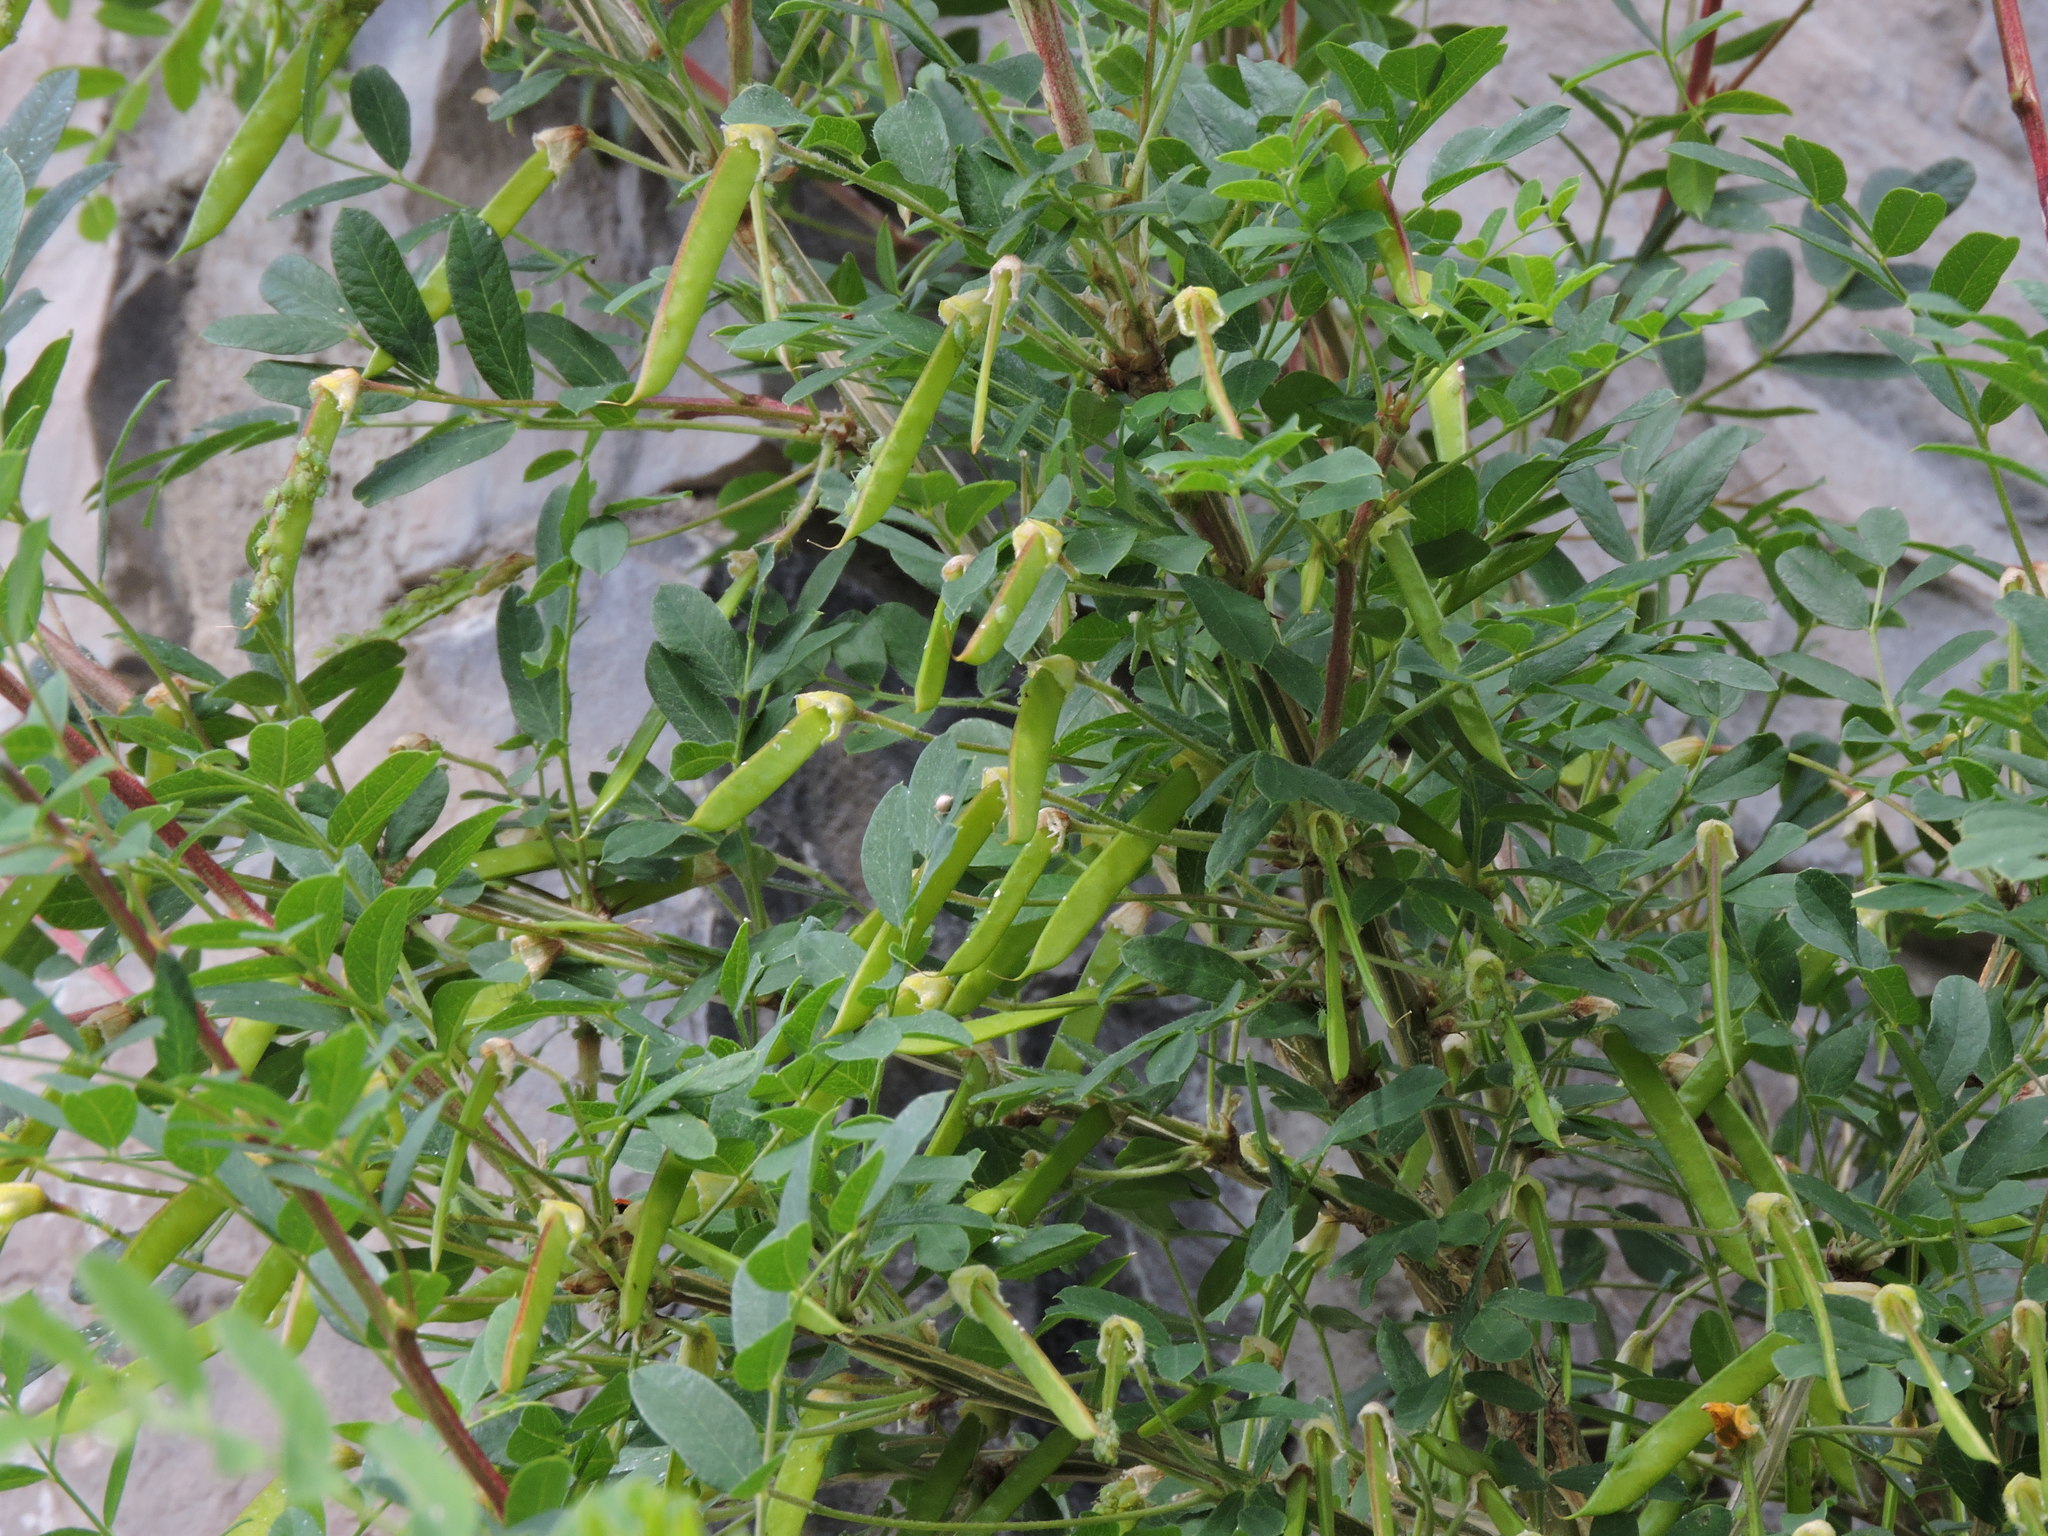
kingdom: Plantae
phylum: Tracheophyta
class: Magnoliopsida
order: Fabales
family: Fabaceae
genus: Caragana
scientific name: Caragana arborescens
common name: Siberian peashrub
